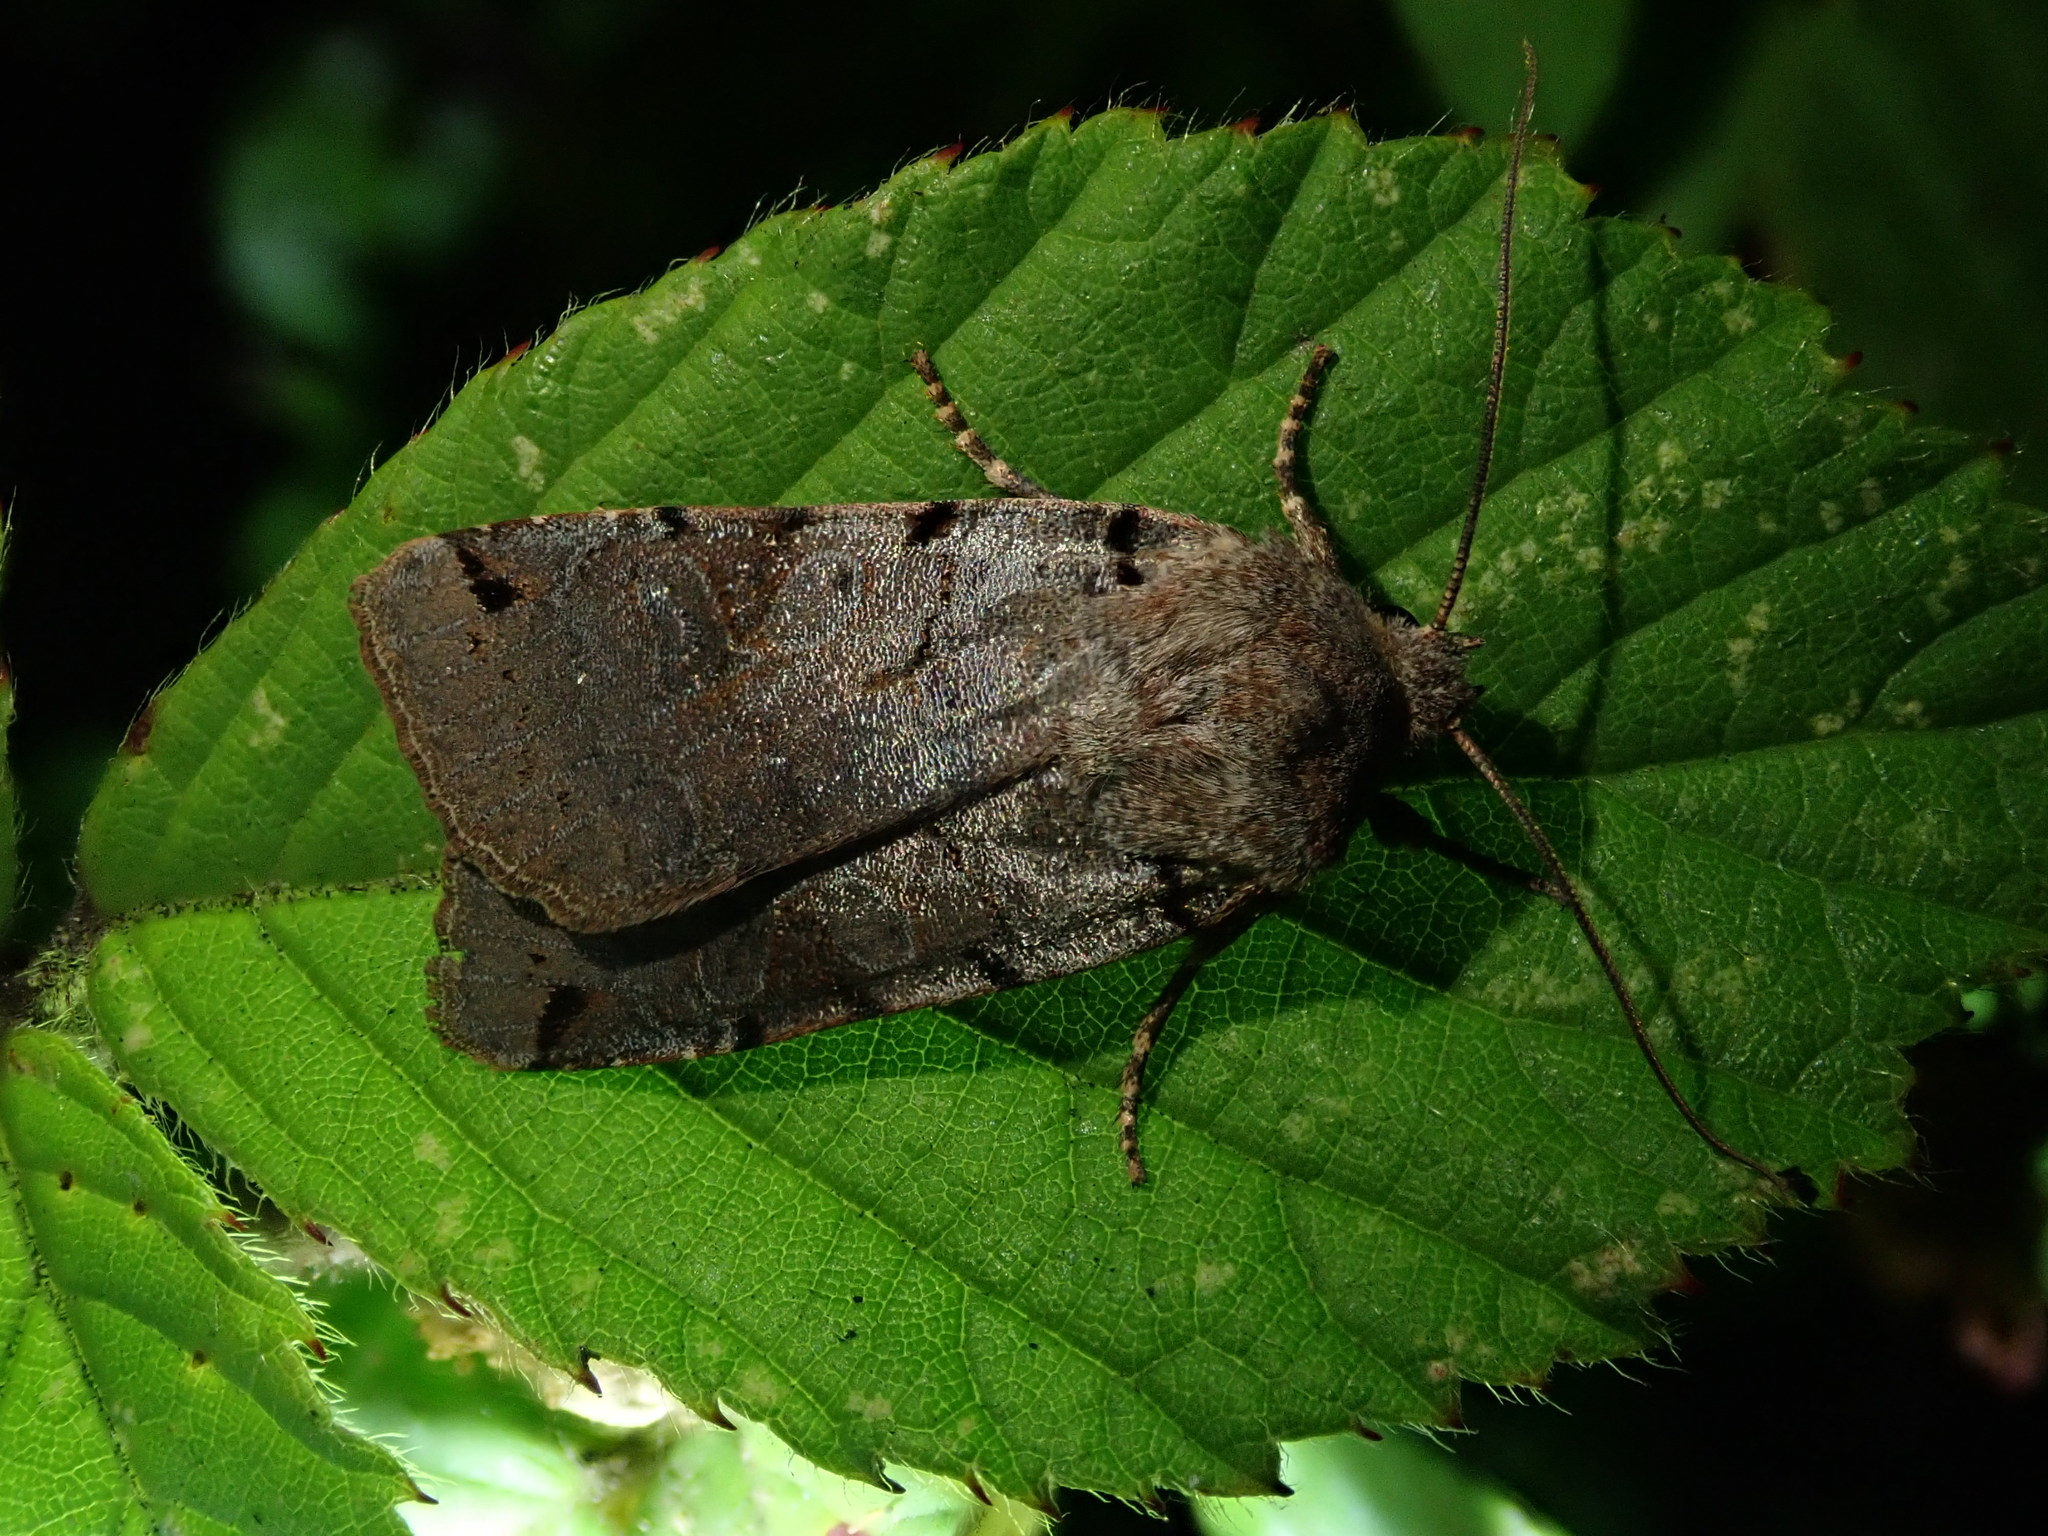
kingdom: Animalia
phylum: Arthropoda
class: Insecta
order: Lepidoptera
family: Noctuidae
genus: Agrochola
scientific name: Agrochola litura
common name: Brown-spot pinion
